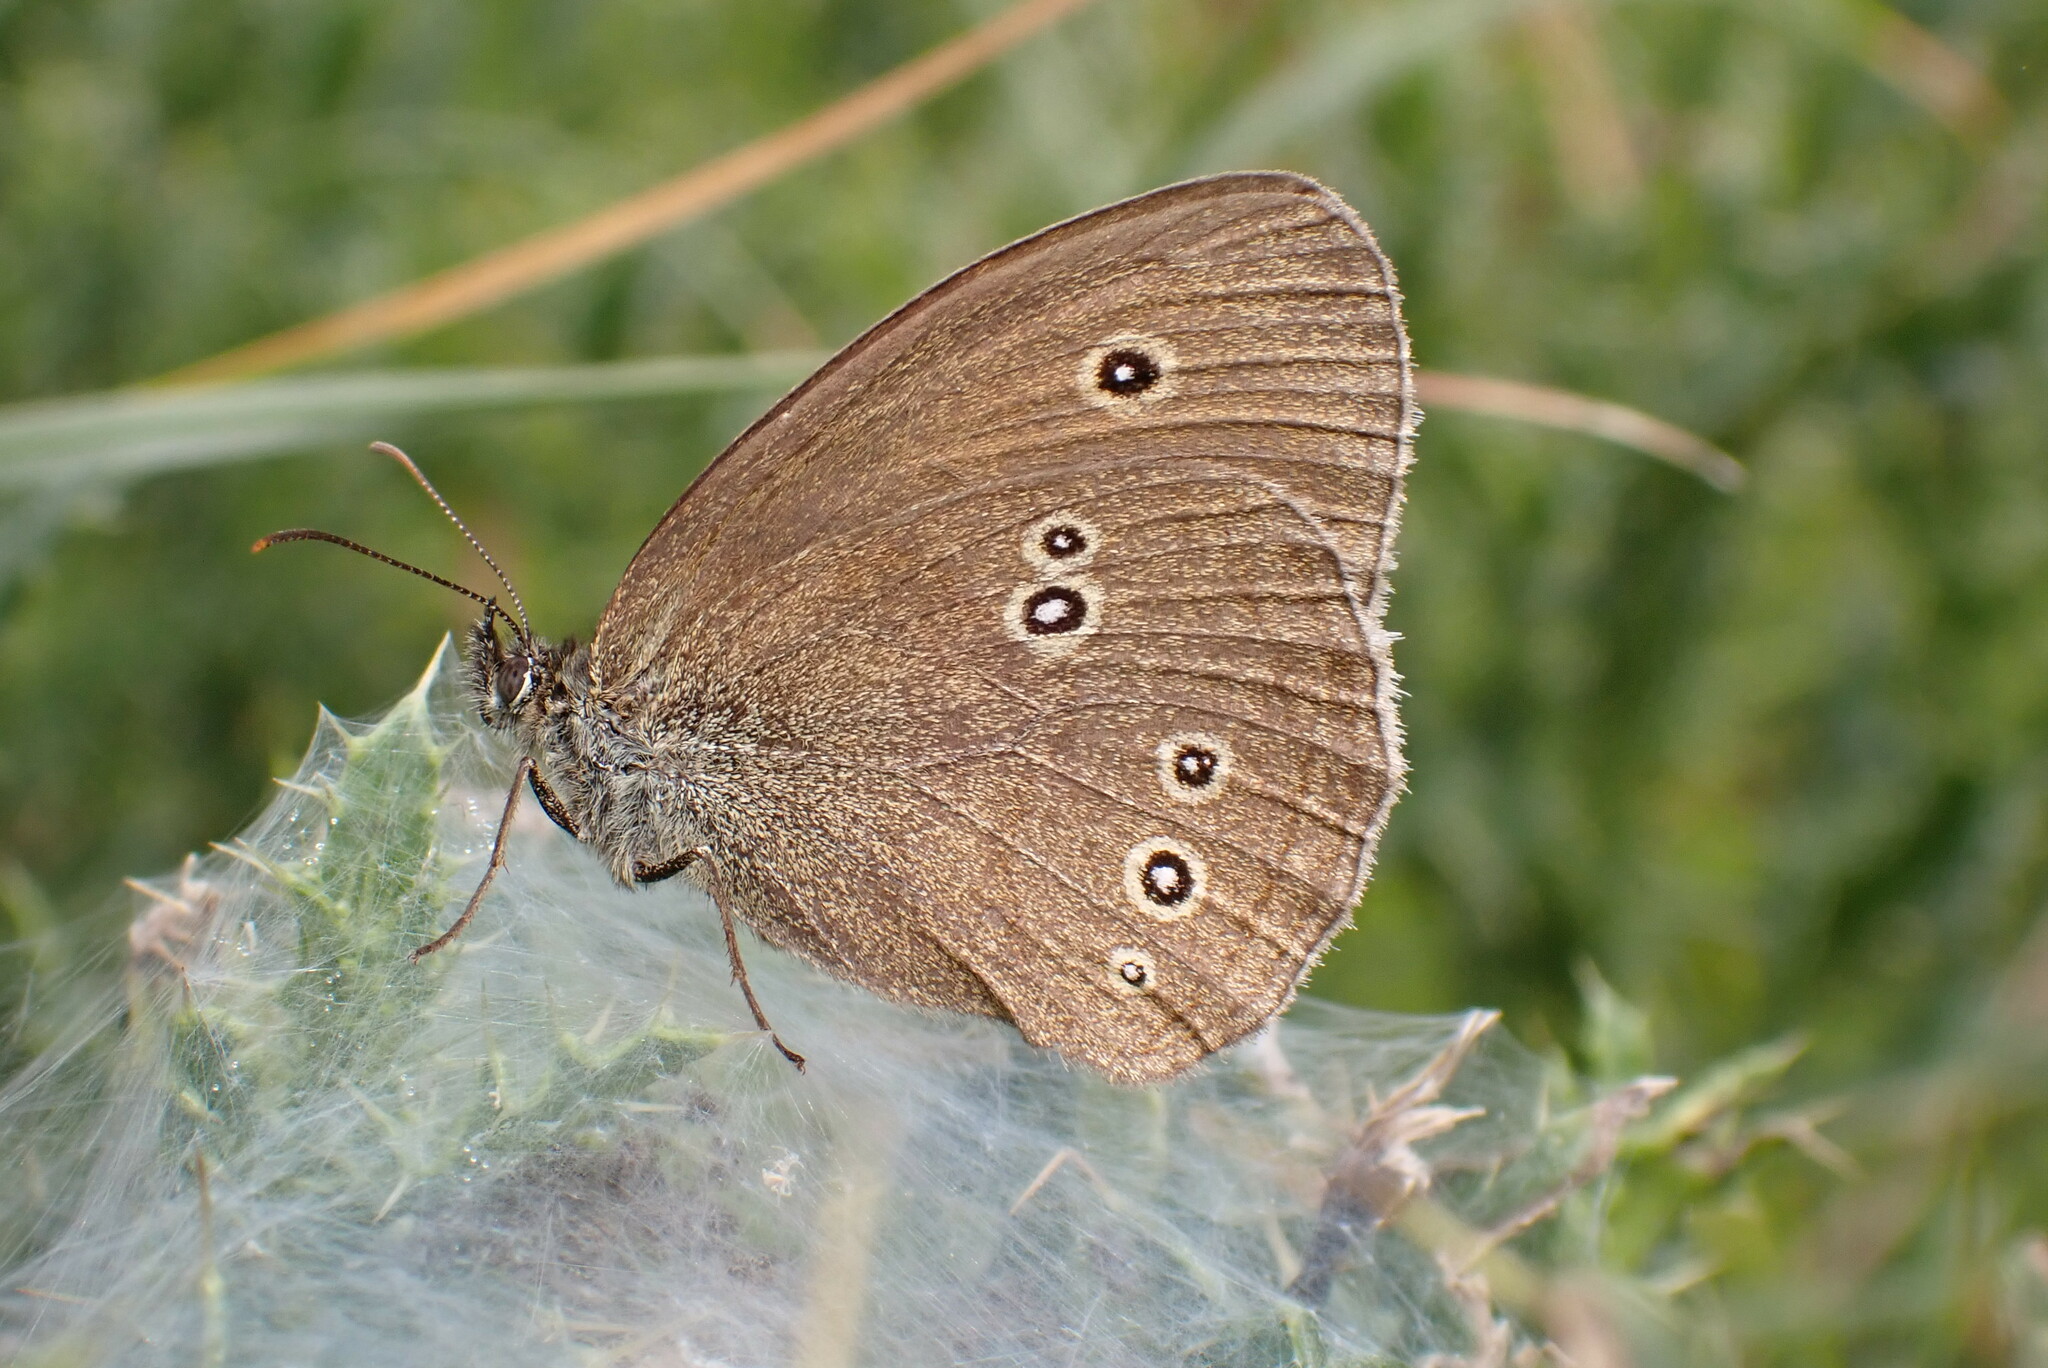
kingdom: Animalia
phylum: Arthropoda
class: Insecta
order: Lepidoptera
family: Nymphalidae
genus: Aphantopus
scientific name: Aphantopus hyperantus
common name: Ringlet
